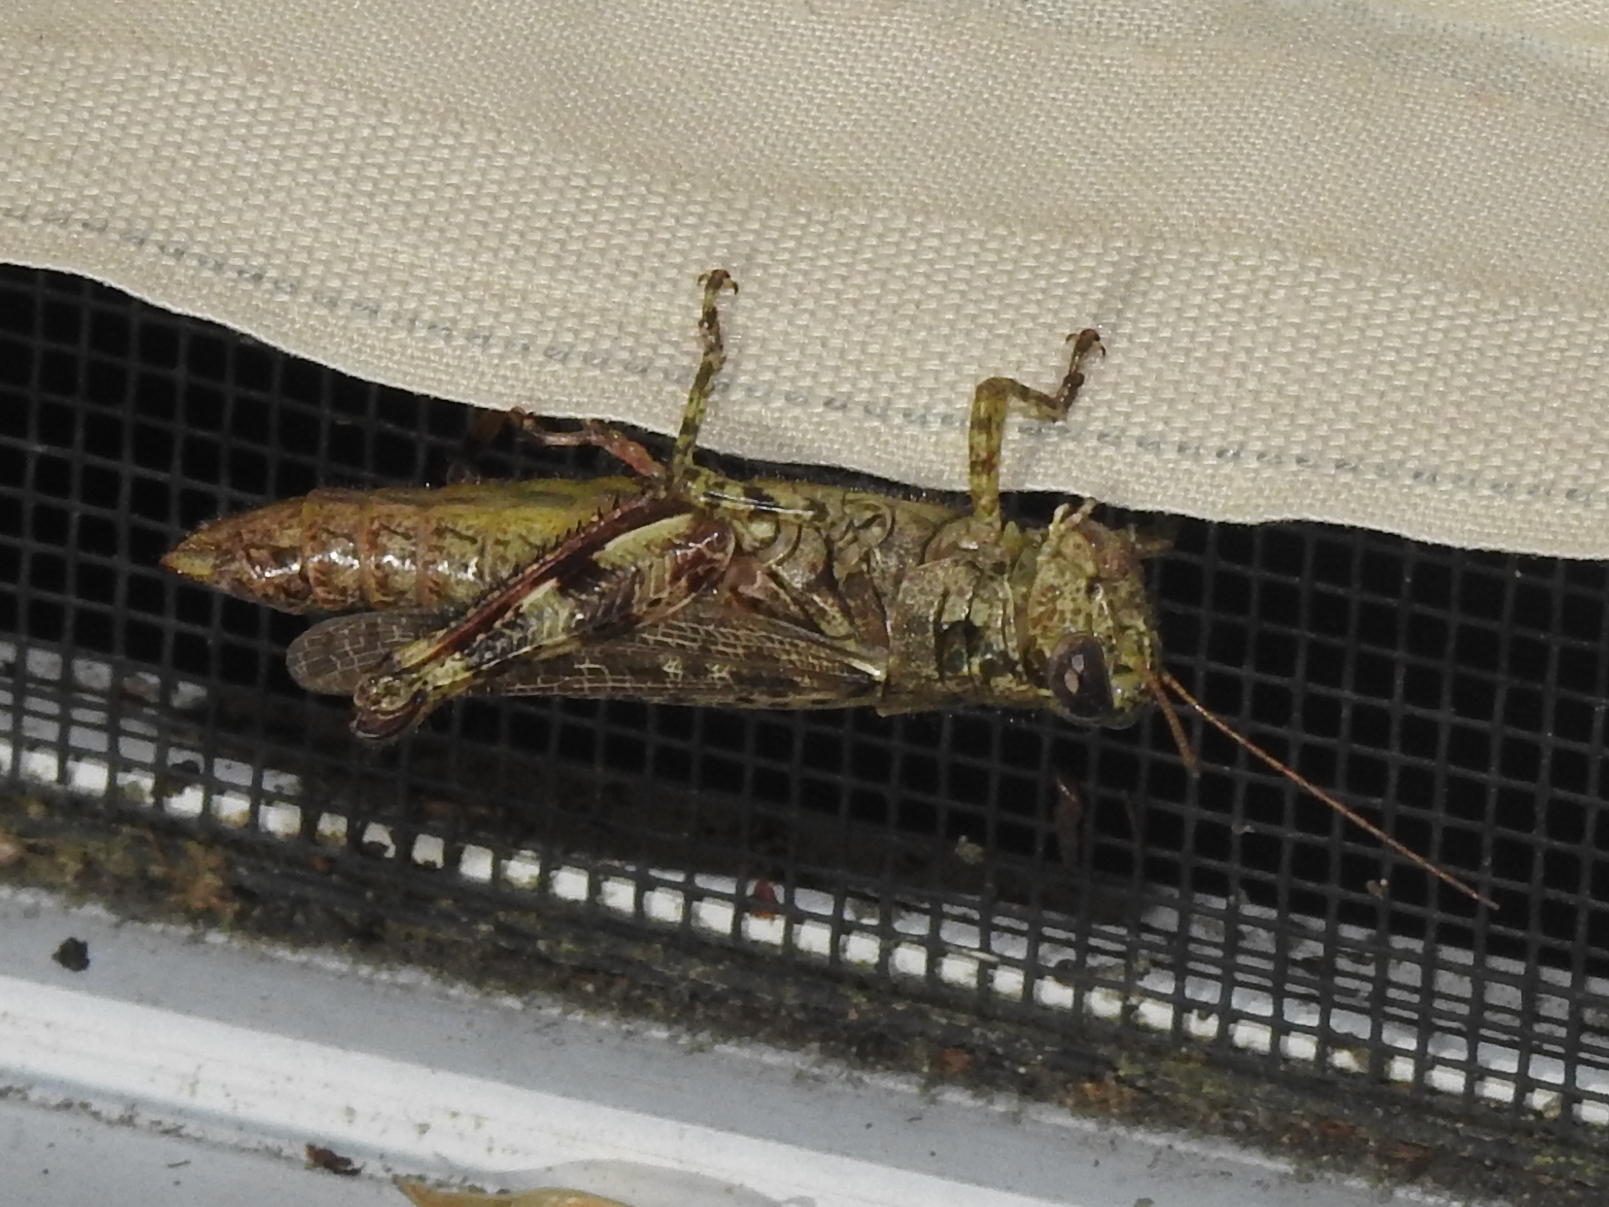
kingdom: Animalia
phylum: Arthropoda
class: Insecta
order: Orthoptera
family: Acrididae
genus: Melanoplus
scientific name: Melanoplus punctulatus
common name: Pine-tree spur-throat grasshopper
